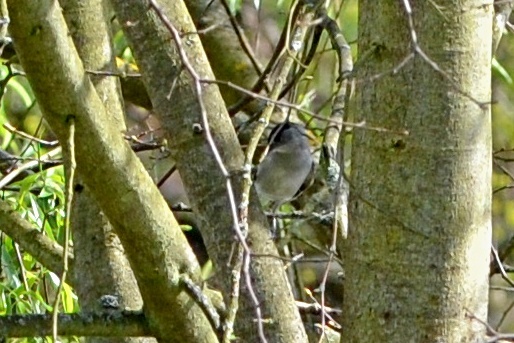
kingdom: Animalia
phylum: Chordata
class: Aves
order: Passeriformes
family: Sylviidae
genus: Sylvia
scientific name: Sylvia atricapilla
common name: Eurasian blackcap
